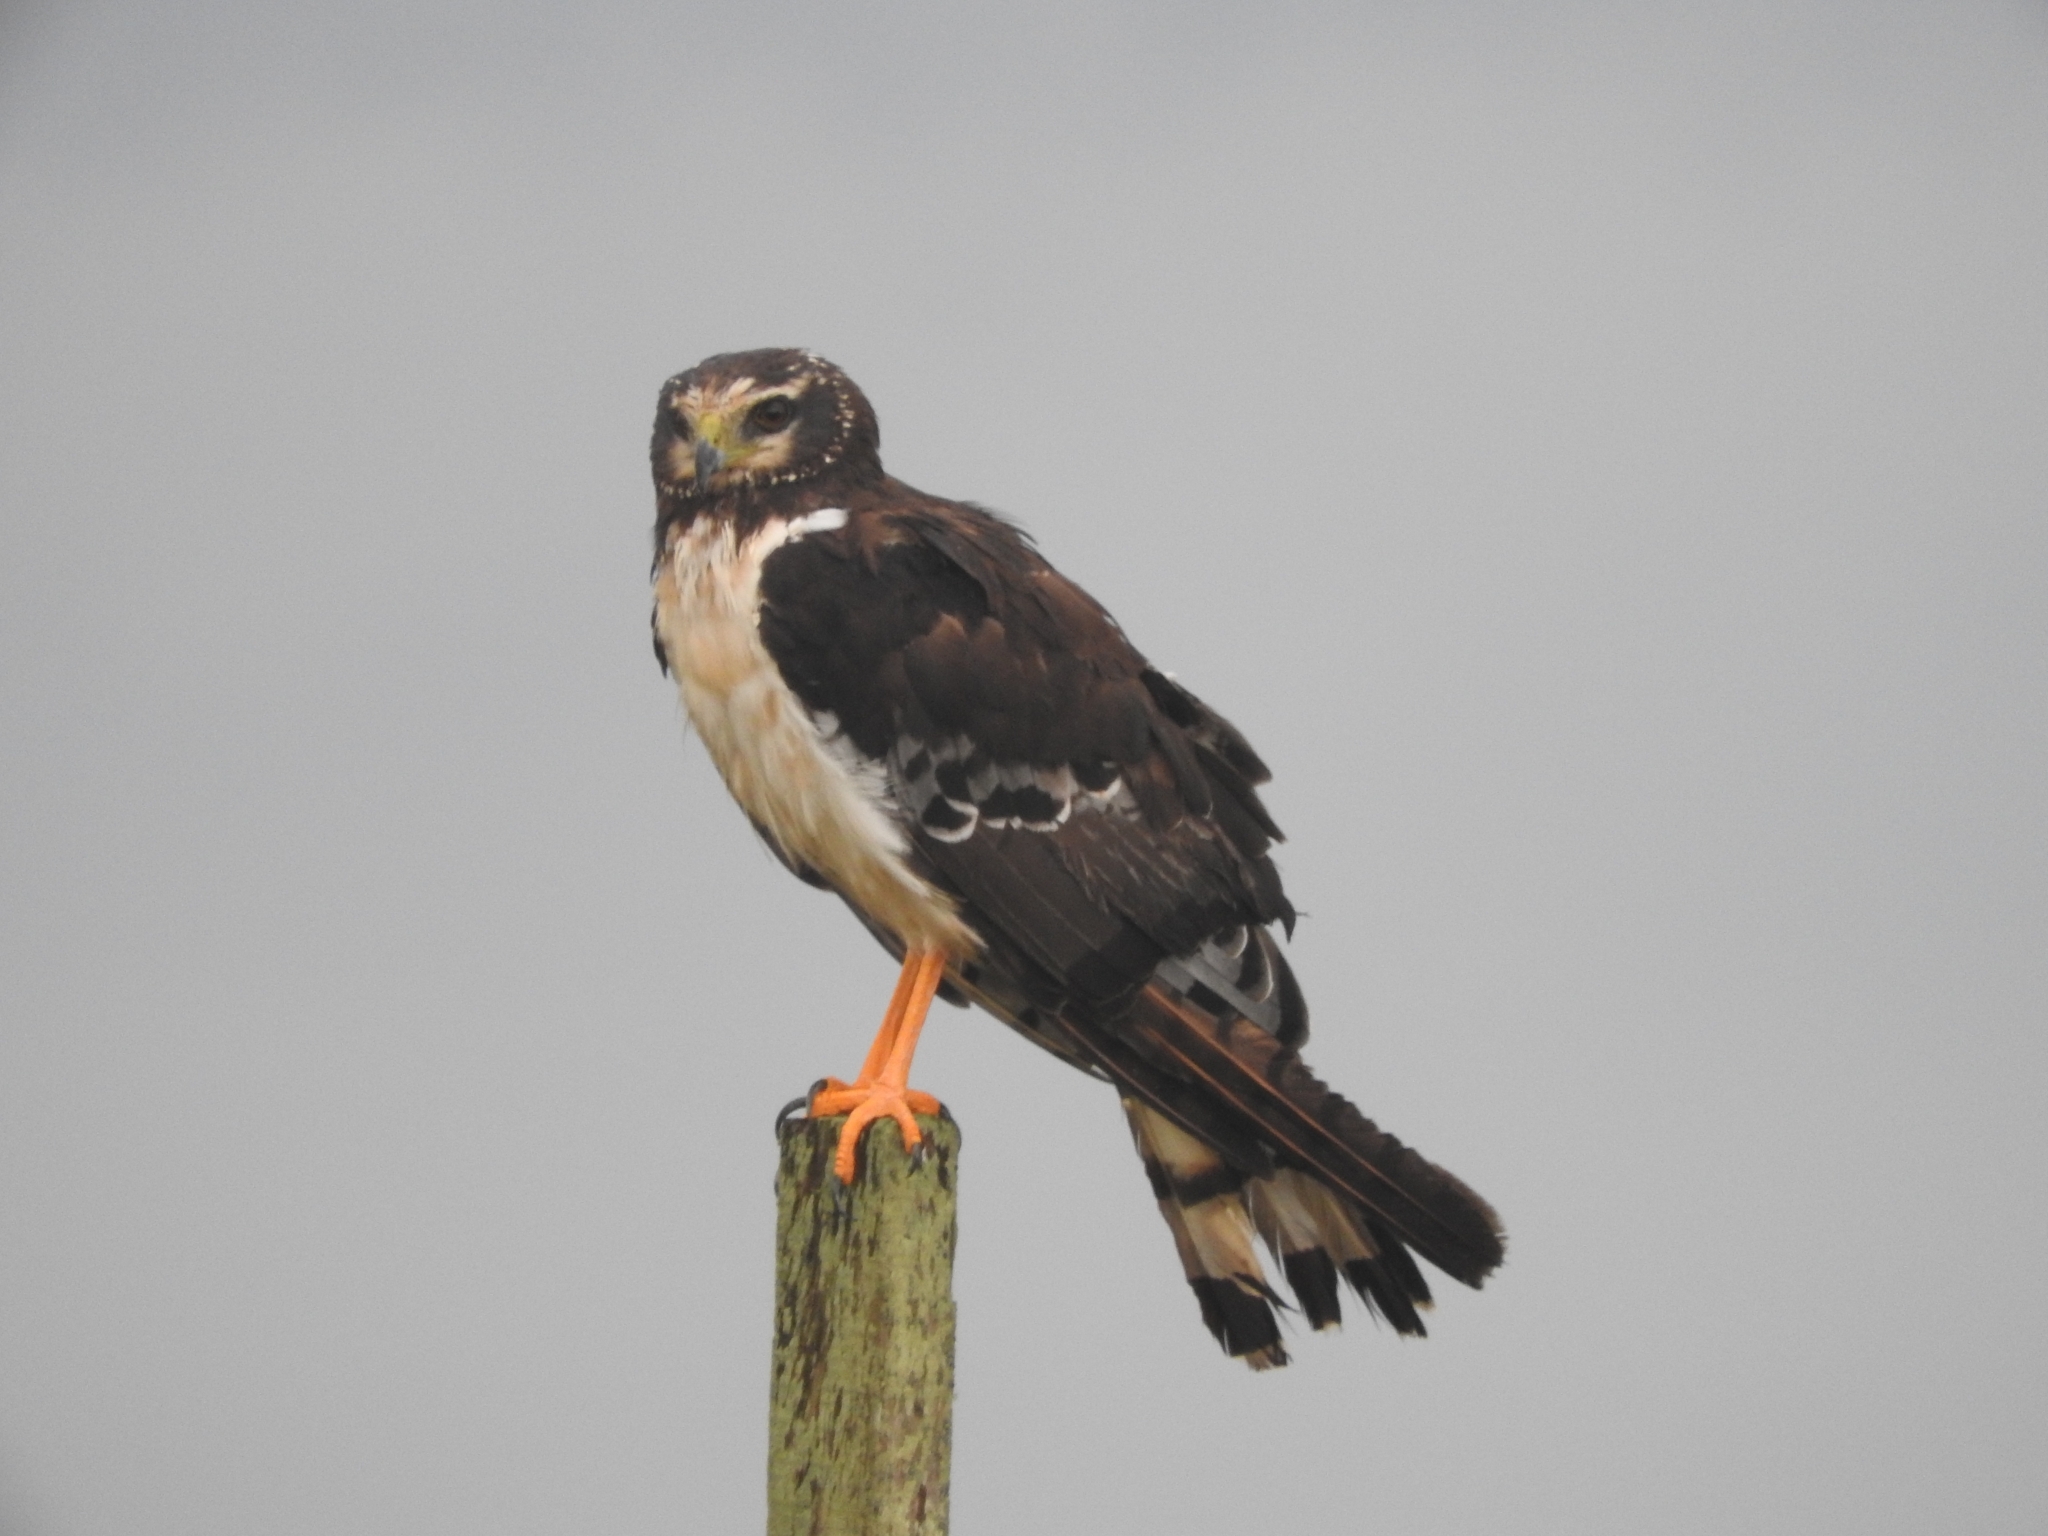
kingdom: Animalia
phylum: Chordata
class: Aves
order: Accipitriformes
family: Accipitridae
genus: Circus
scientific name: Circus buffoni
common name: Long-winged harrier
